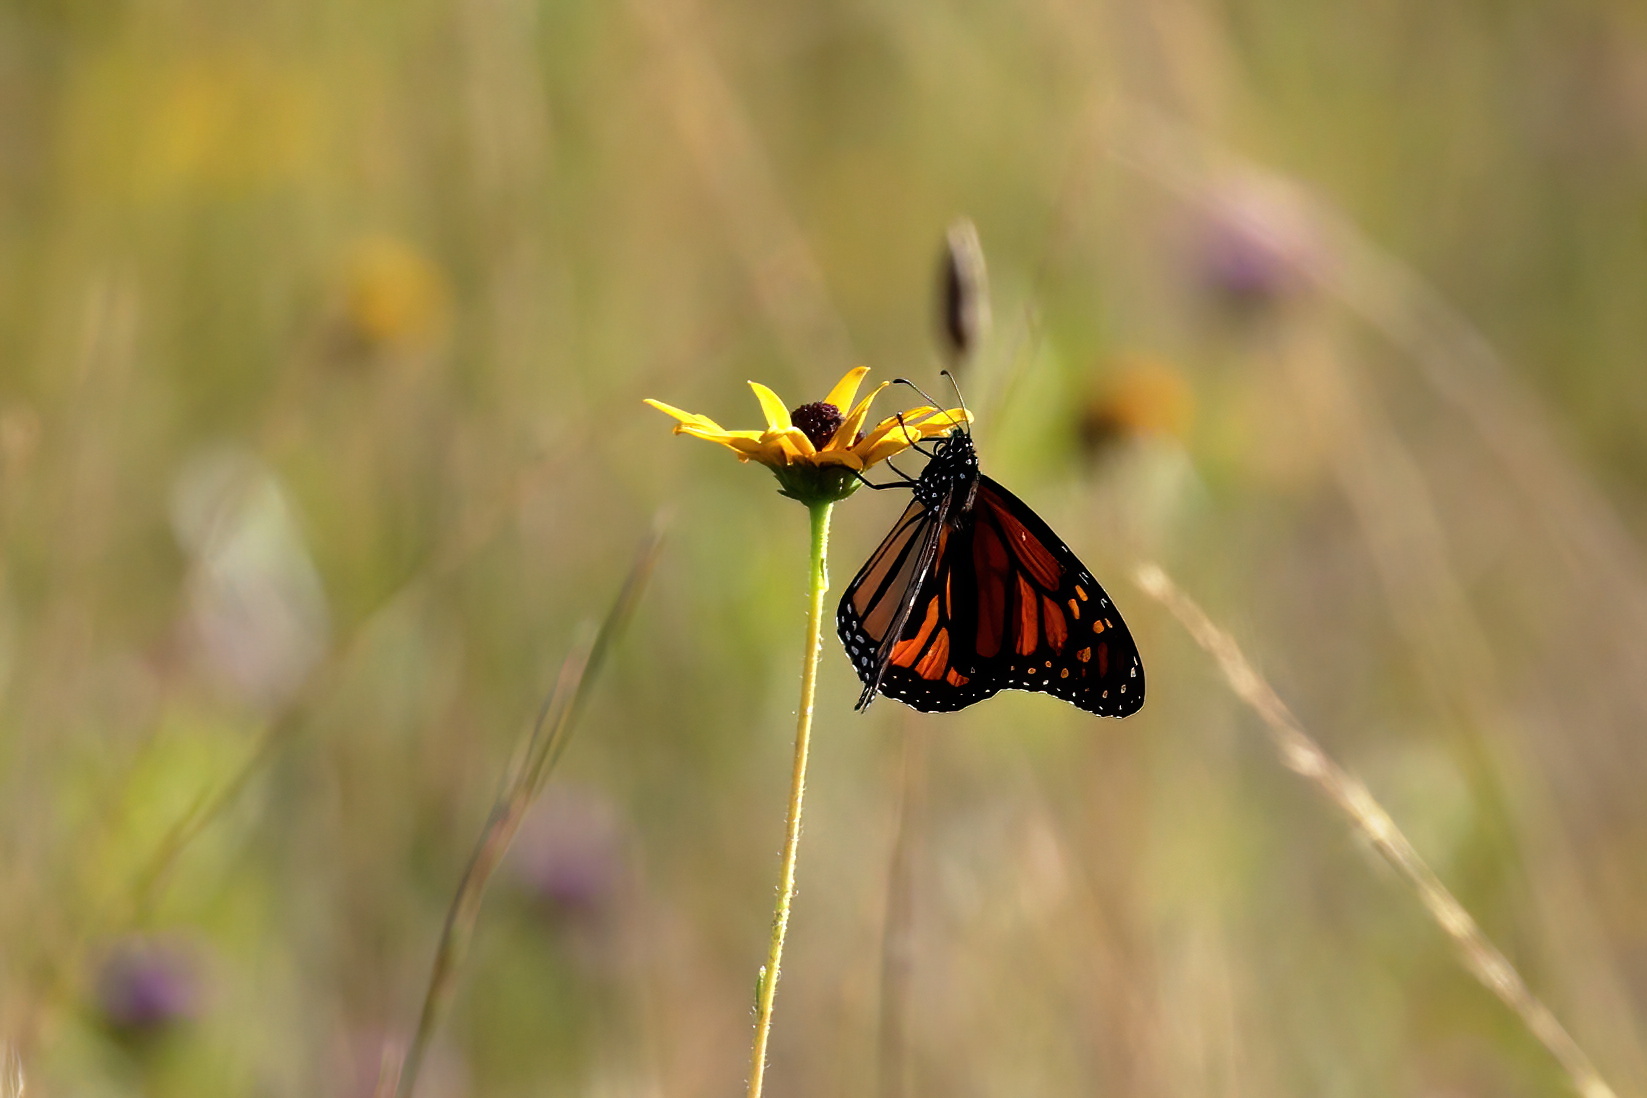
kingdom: Animalia
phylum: Arthropoda
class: Insecta
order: Lepidoptera
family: Nymphalidae
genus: Danaus
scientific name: Danaus plexippus
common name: Monarch
